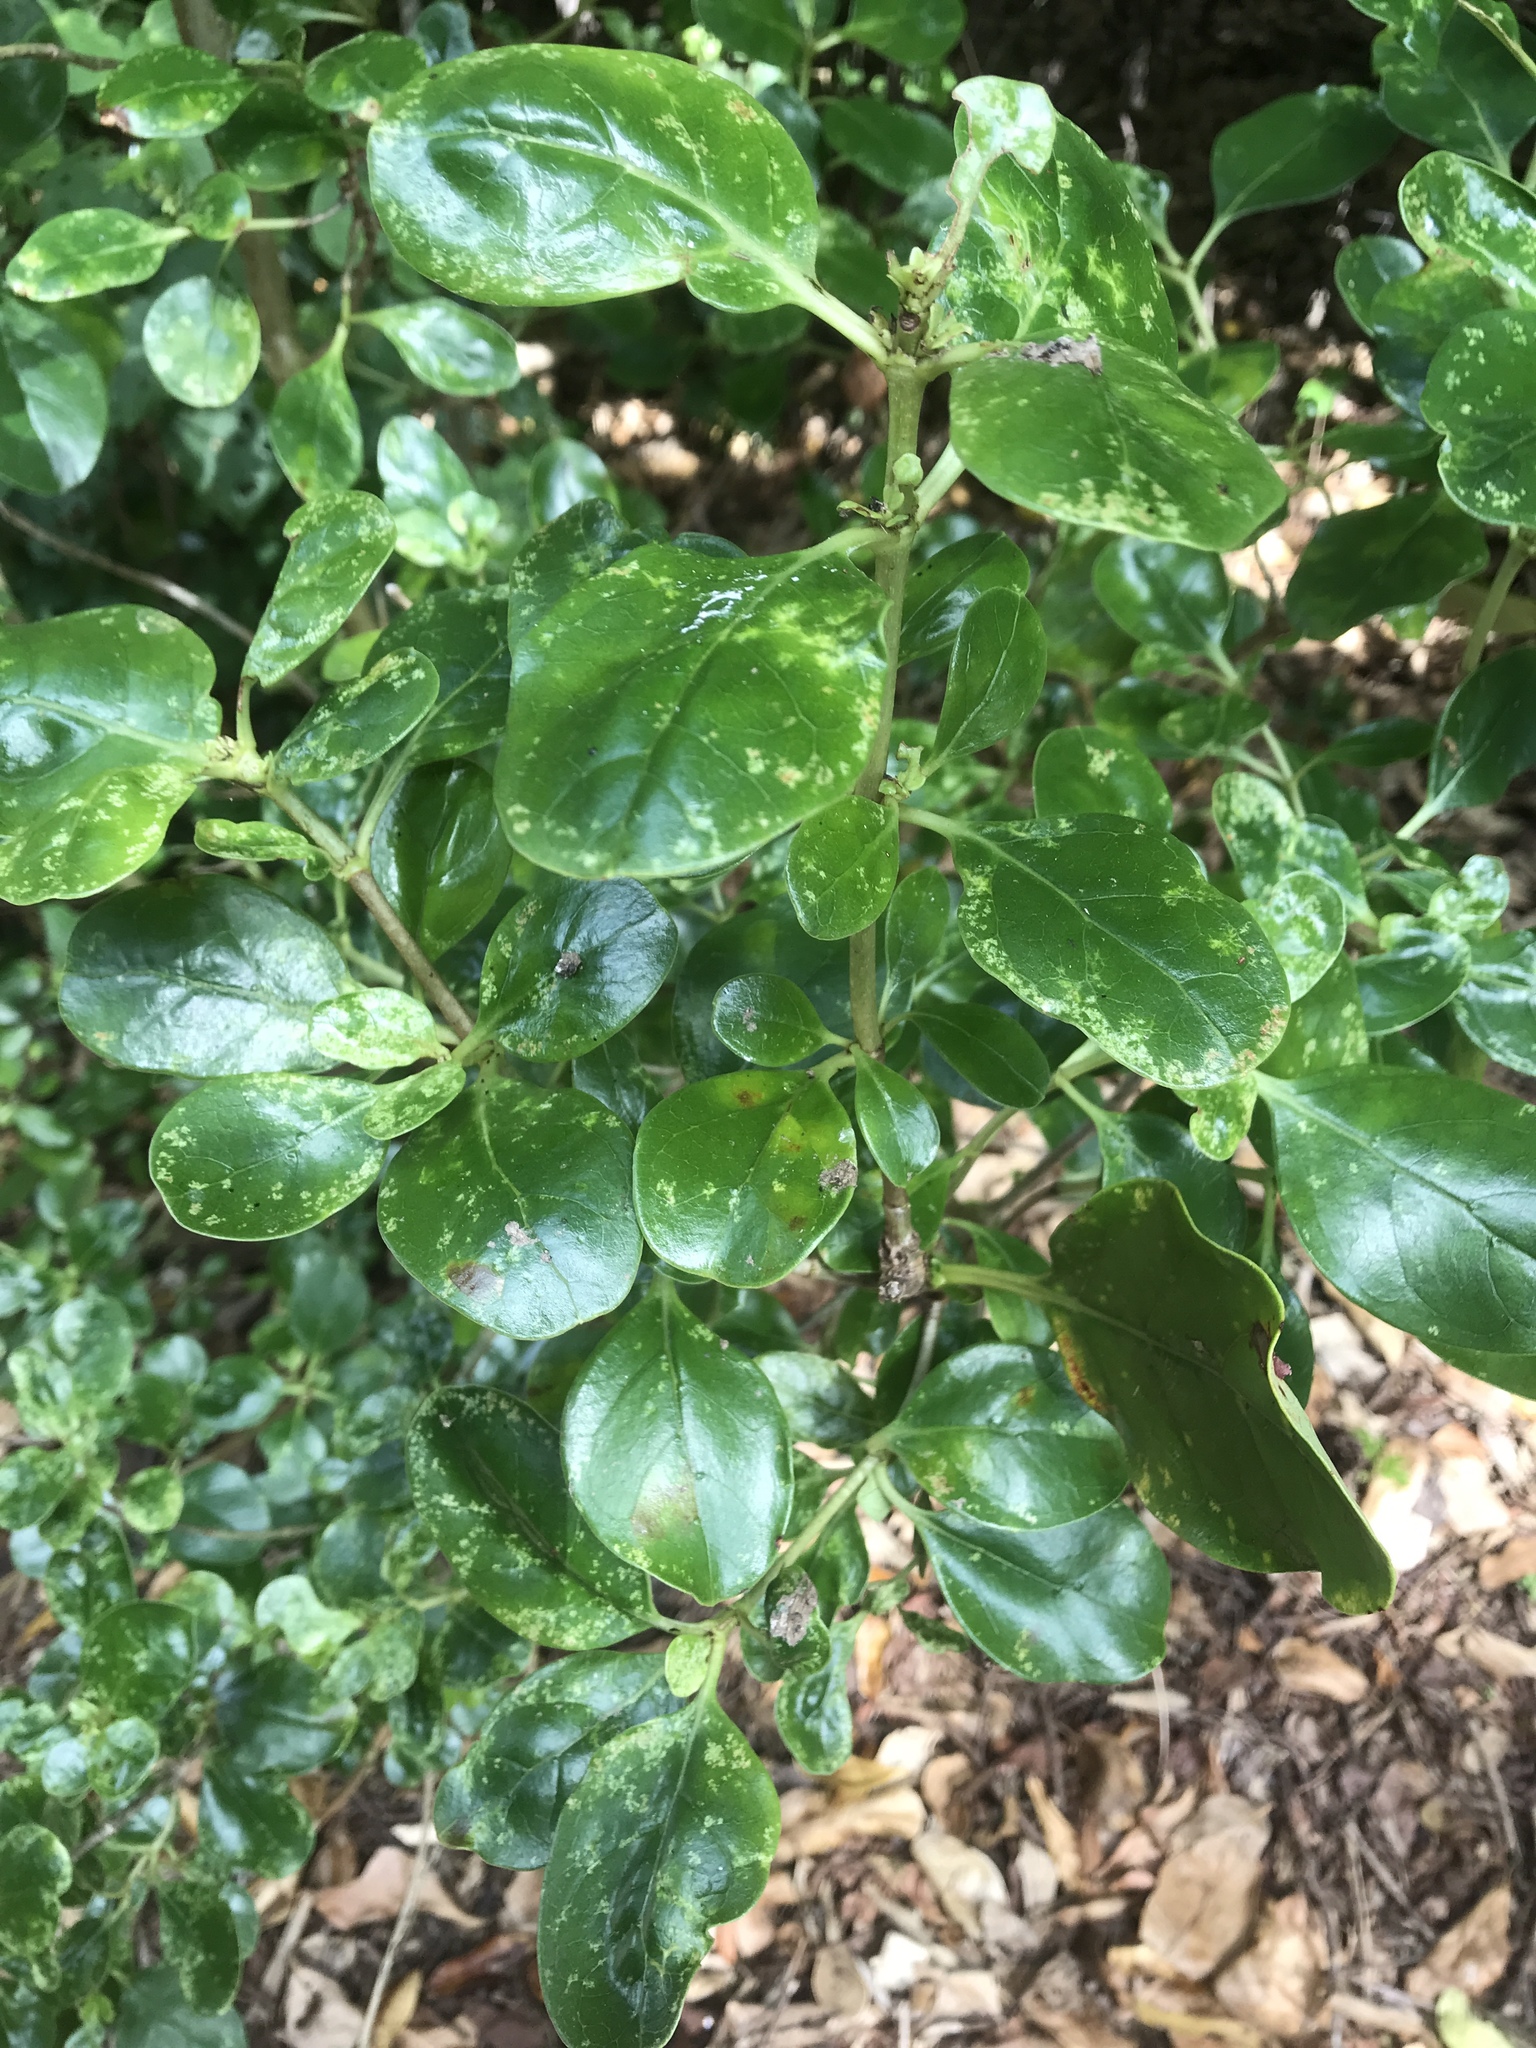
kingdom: Plantae
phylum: Tracheophyta
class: Magnoliopsida
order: Gentianales
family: Rubiaceae
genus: Coprosma
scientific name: Coprosma repens
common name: Tree bedstraw
